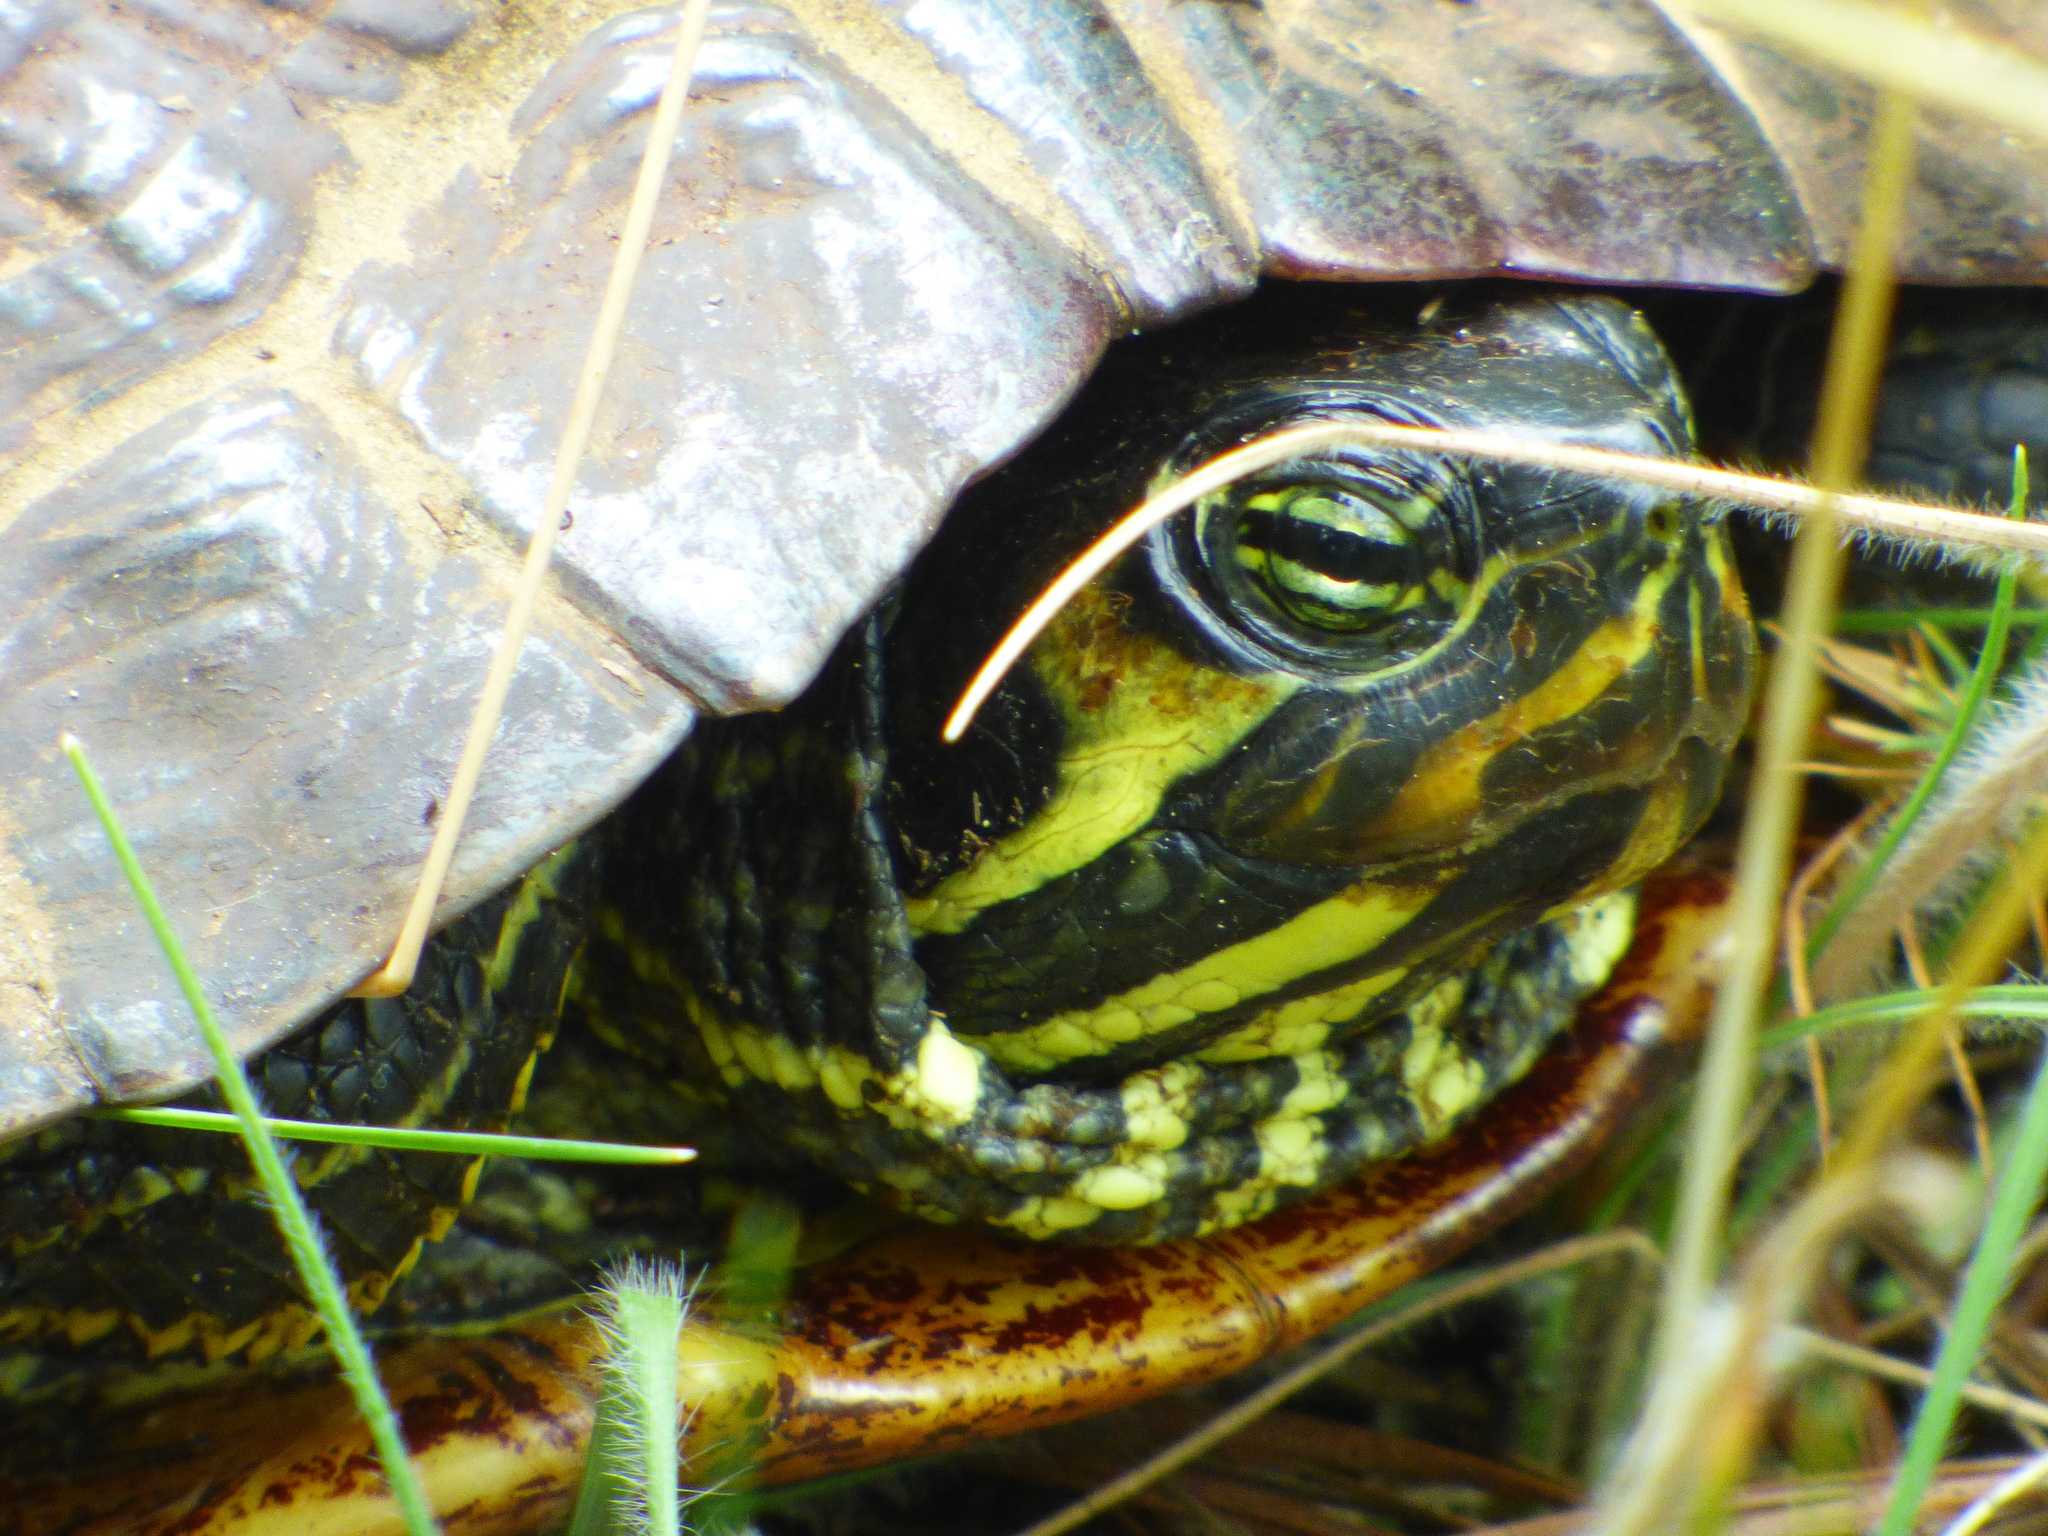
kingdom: Animalia
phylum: Chordata
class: Testudines
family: Emydidae
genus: Trachemys
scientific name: Trachemys scripta
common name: Slider
